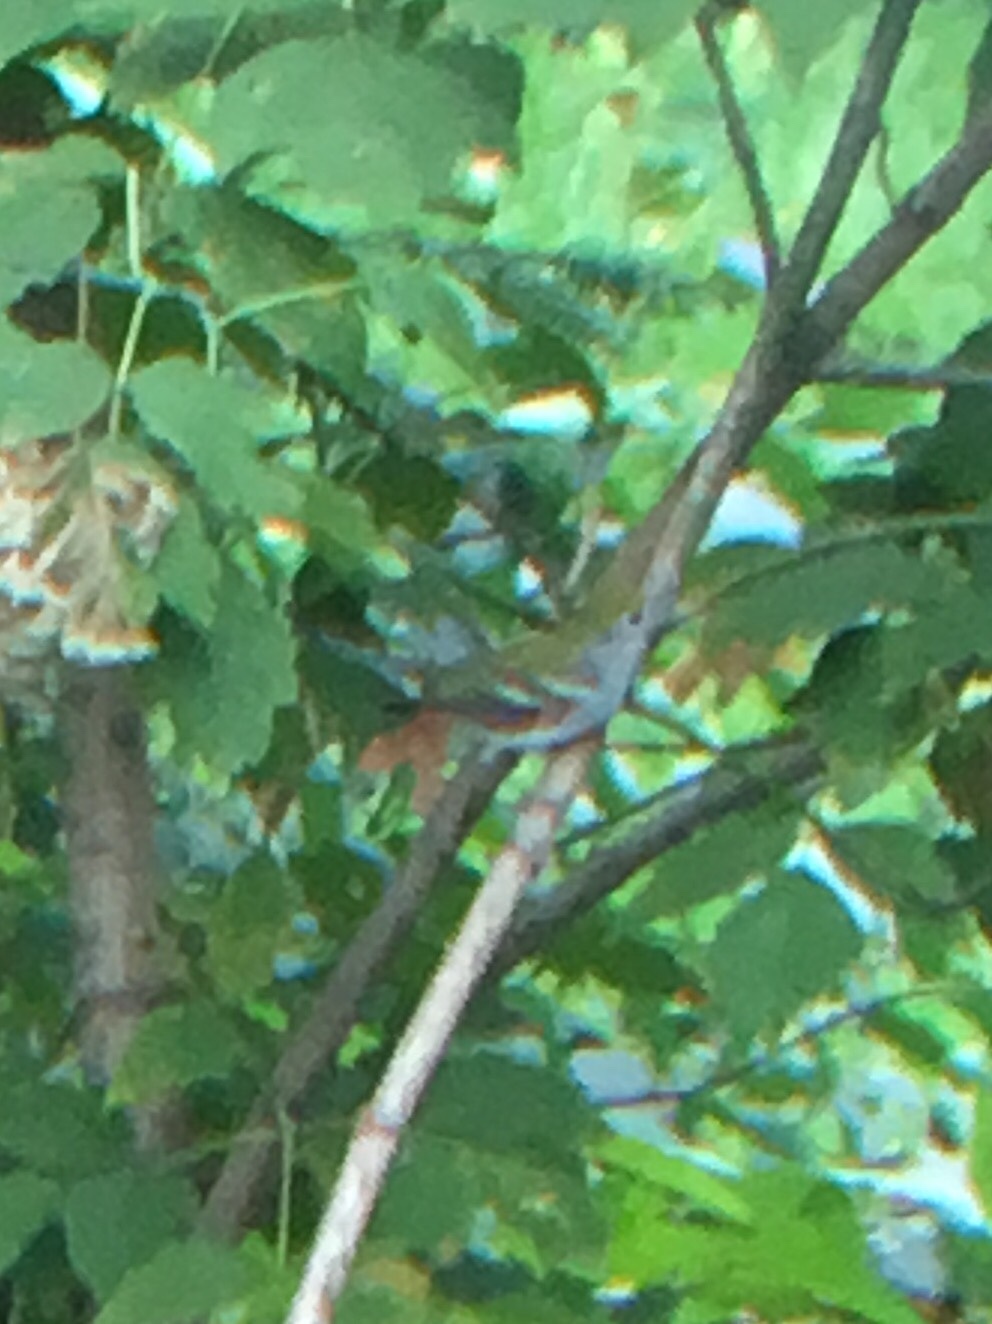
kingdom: Animalia
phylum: Chordata
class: Aves
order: Passeriformes
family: Parulidae
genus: Setophaga
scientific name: Setophaga pensylvanica
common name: Chestnut-sided warbler
